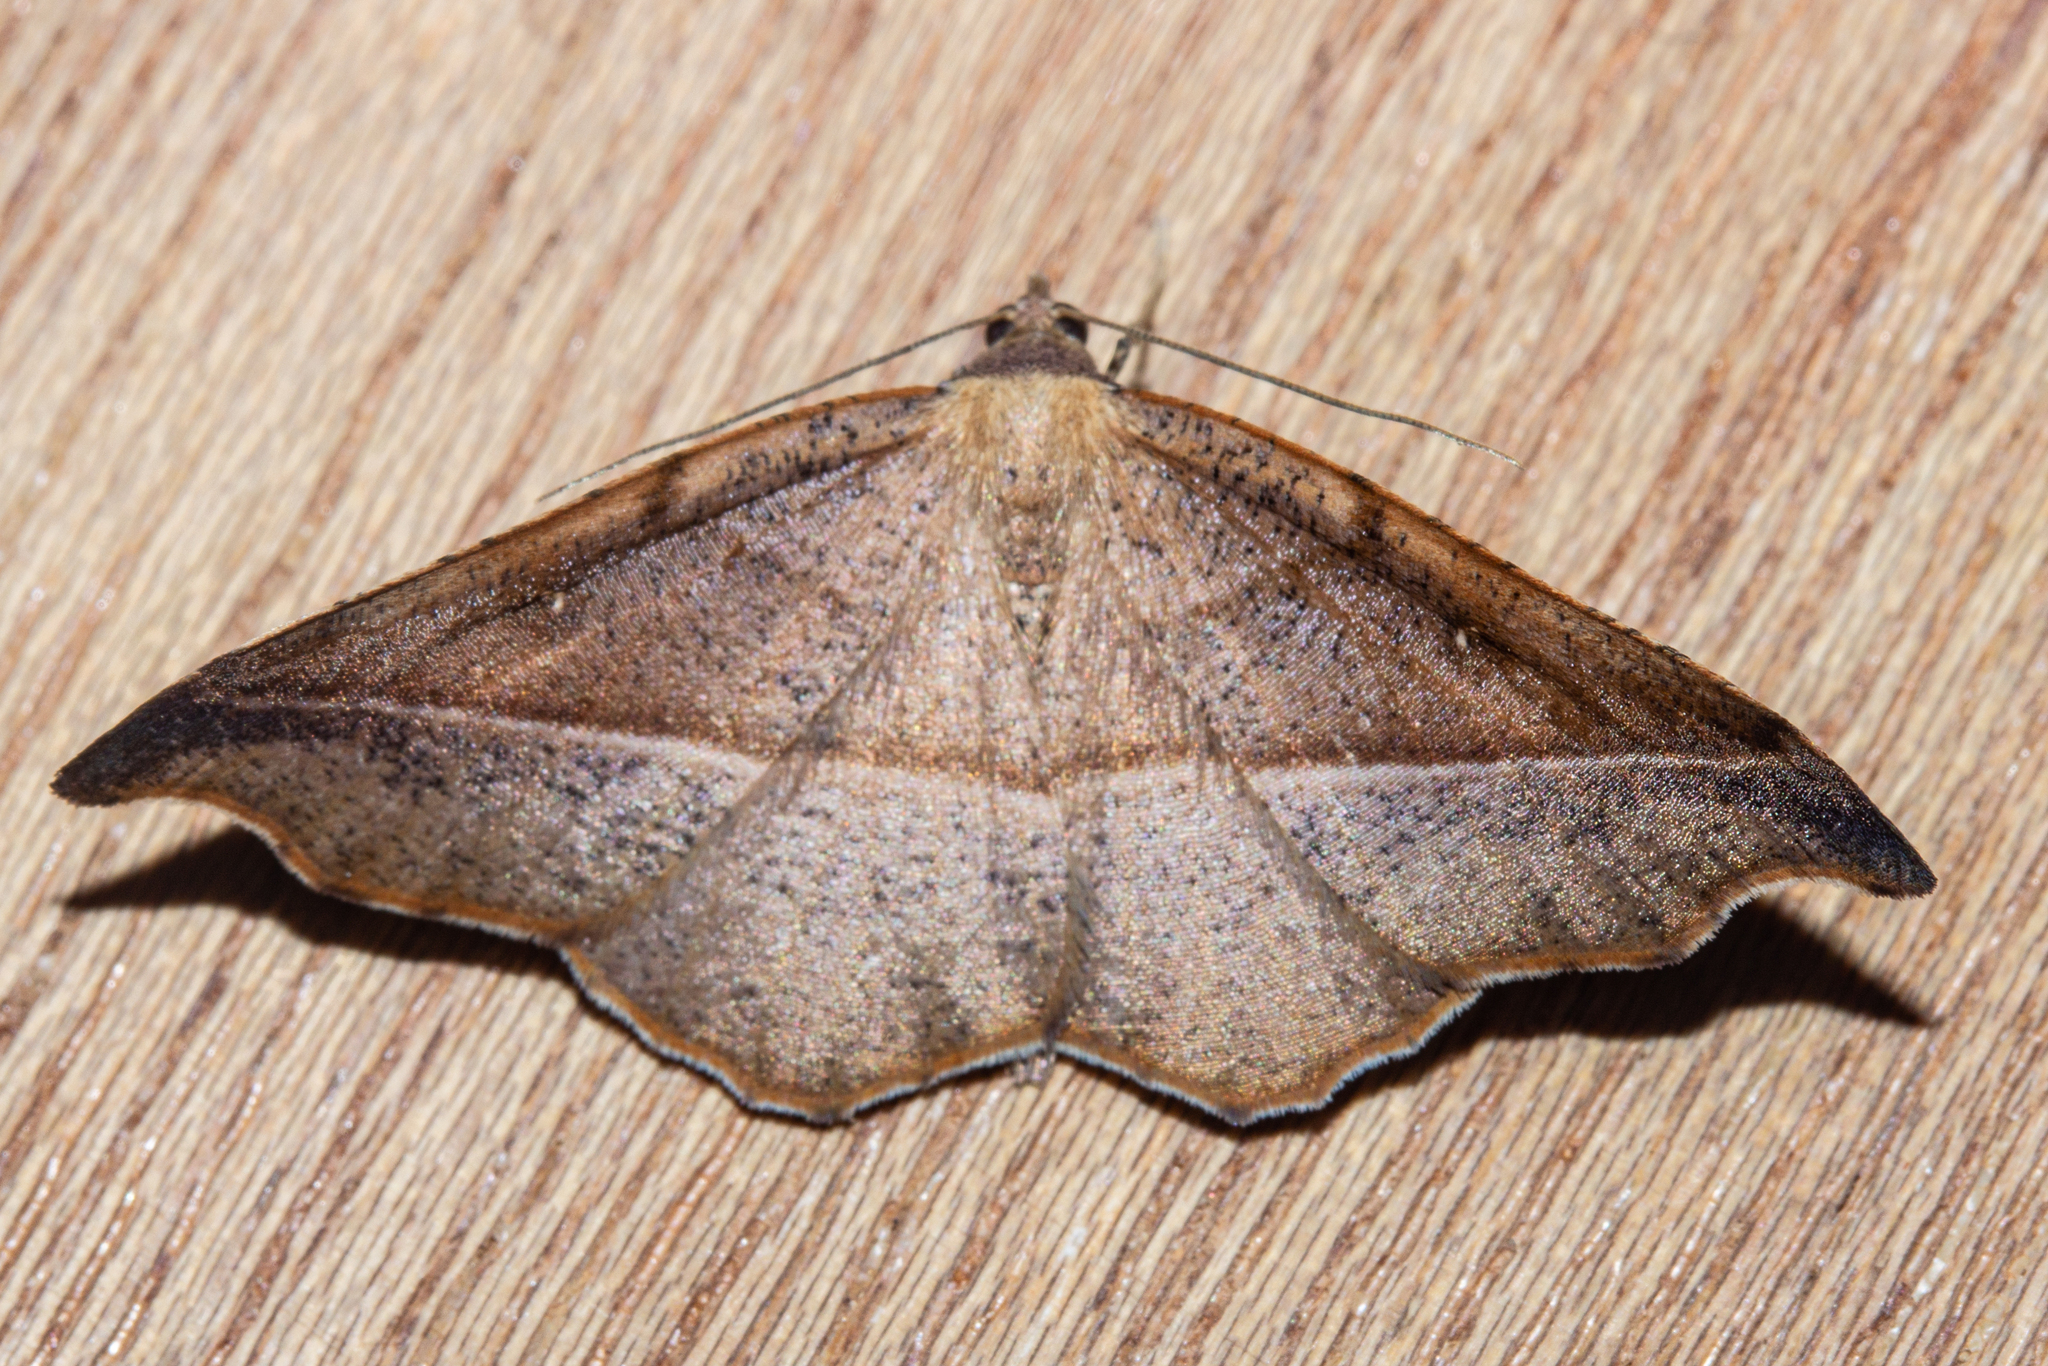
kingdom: Animalia
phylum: Arthropoda
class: Insecta
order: Lepidoptera
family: Geometridae
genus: Sarisa
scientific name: Sarisa muriferata
